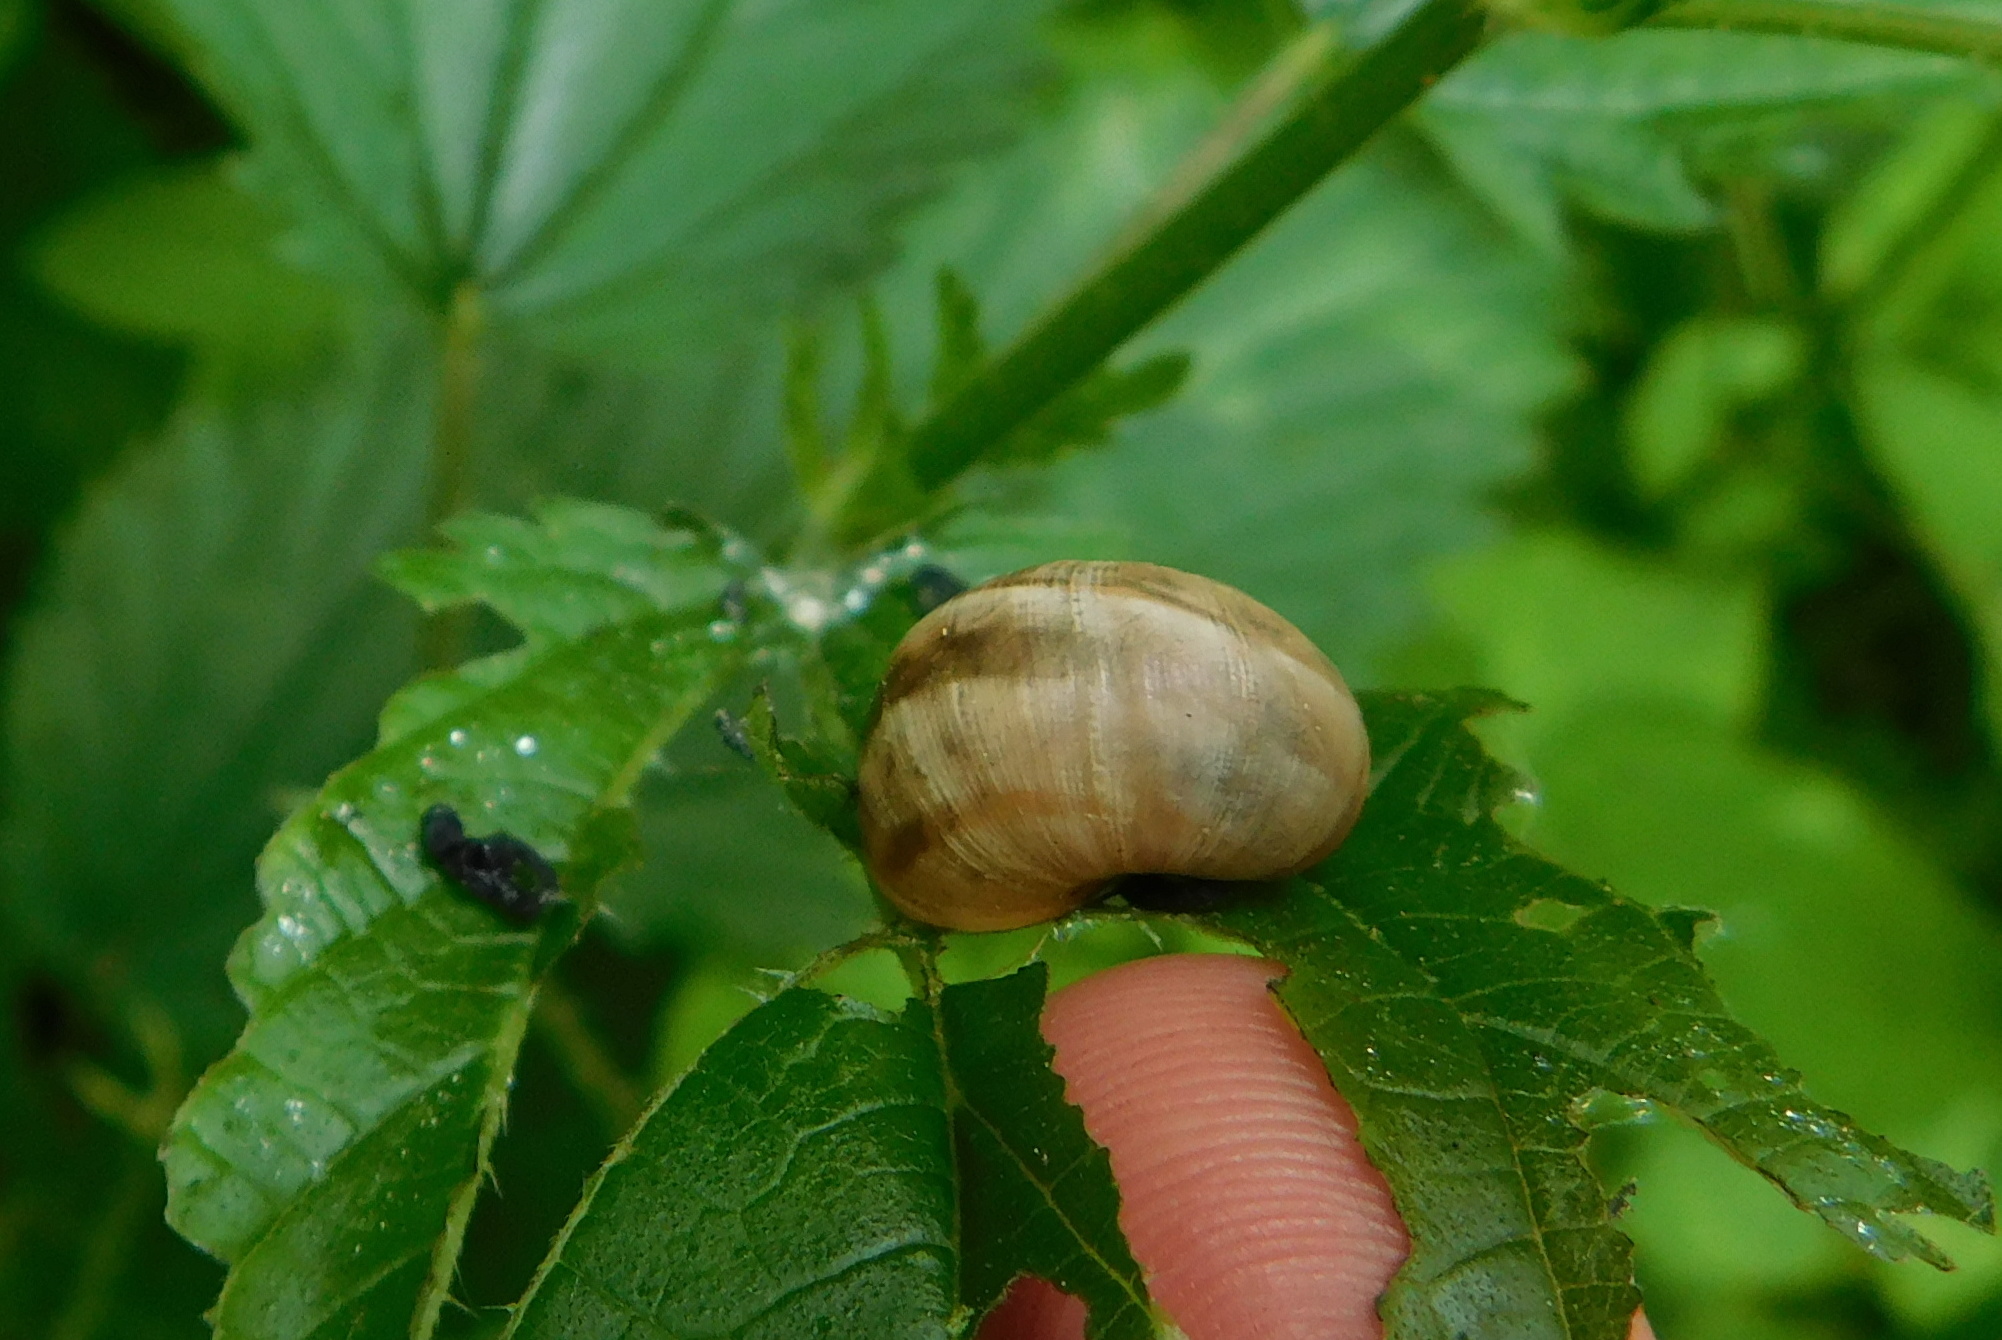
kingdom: Animalia
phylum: Mollusca
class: Gastropoda
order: Stylommatophora
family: Helicidae
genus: Helix
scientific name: Helix pomatia
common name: Roman snail
